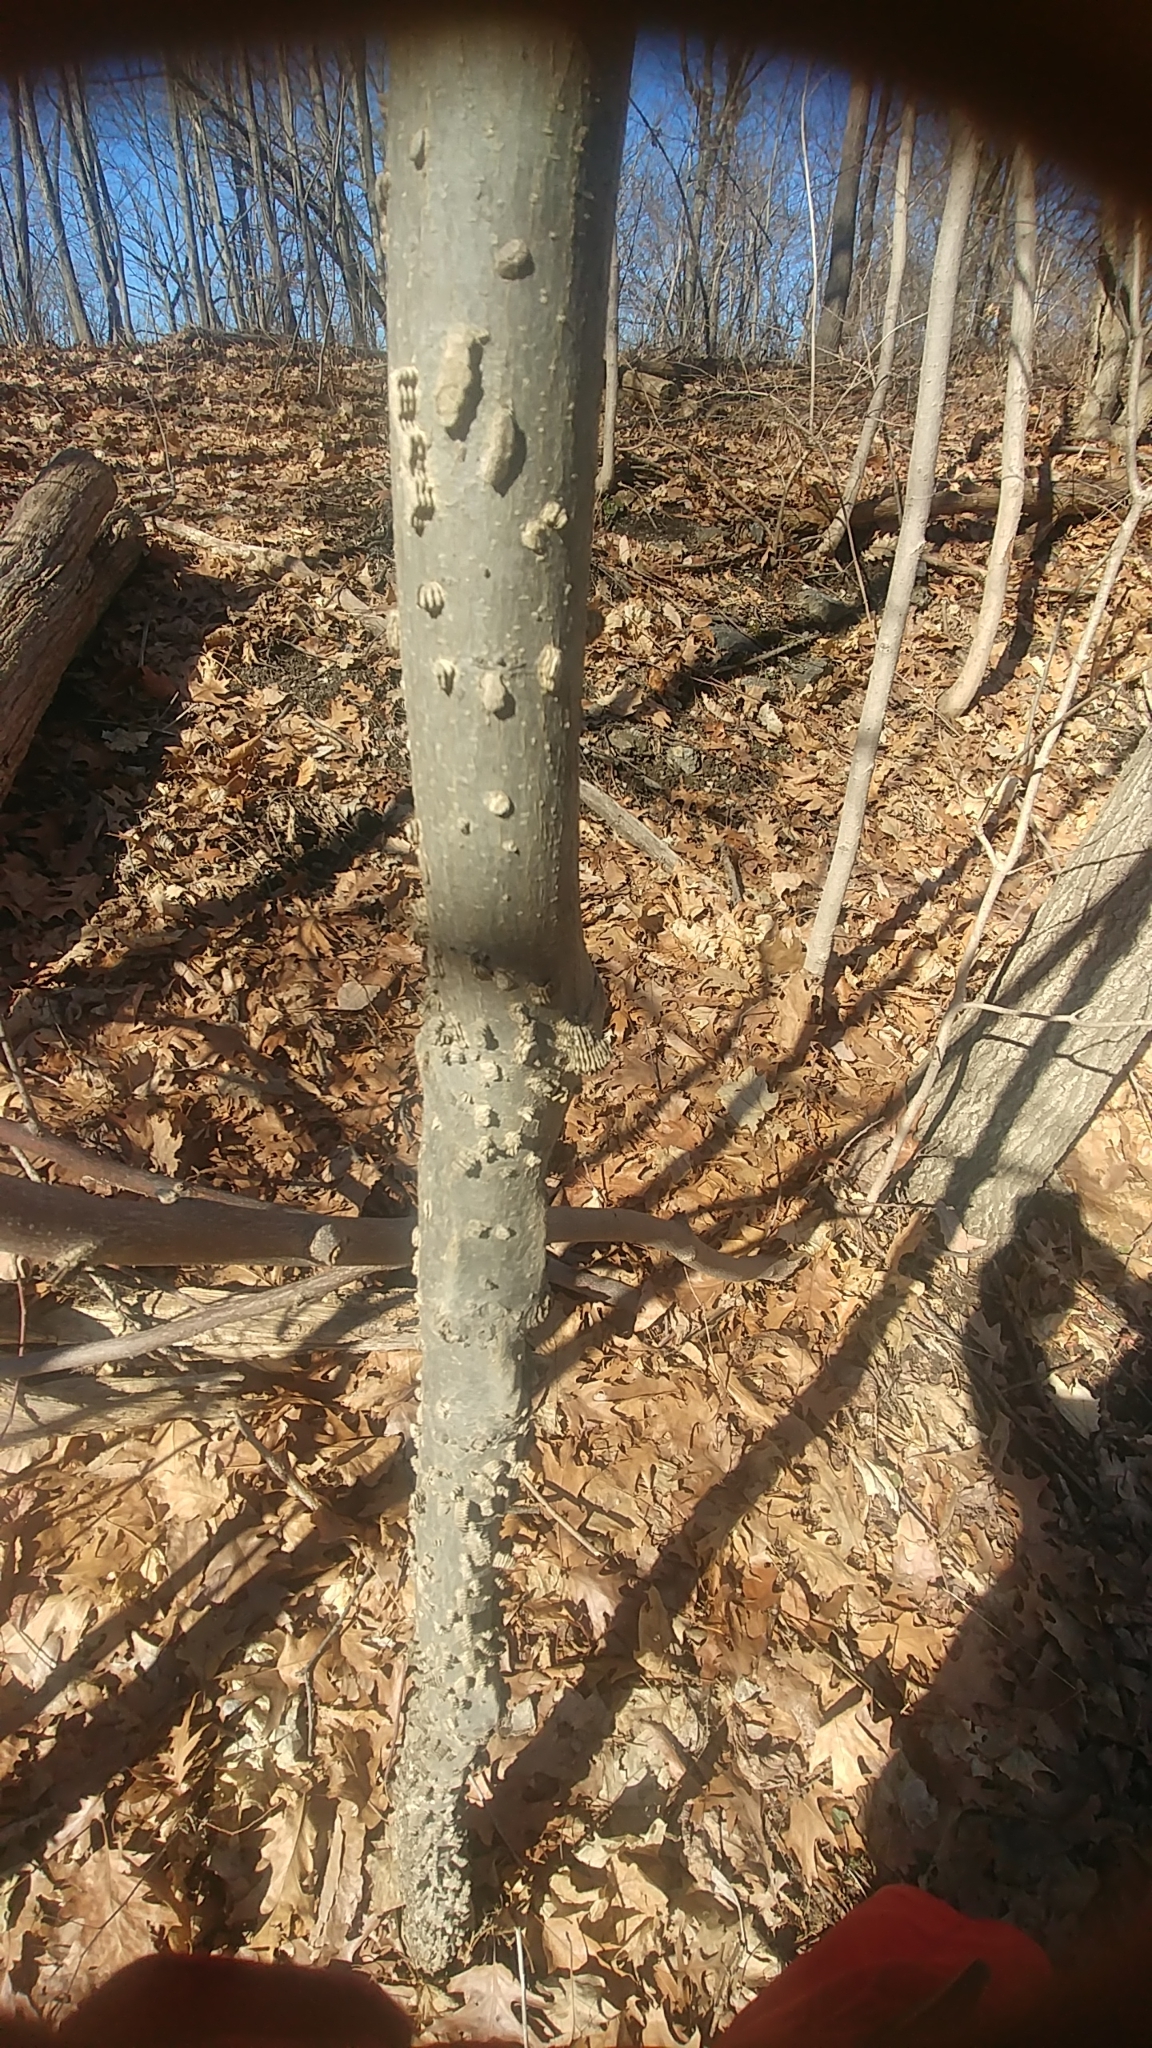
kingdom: Plantae
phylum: Tracheophyta
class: Magnoliopsida
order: Rosales
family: Cannabaceae
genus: Celtis
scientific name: Celtis occidentalis
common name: Common hackberry
